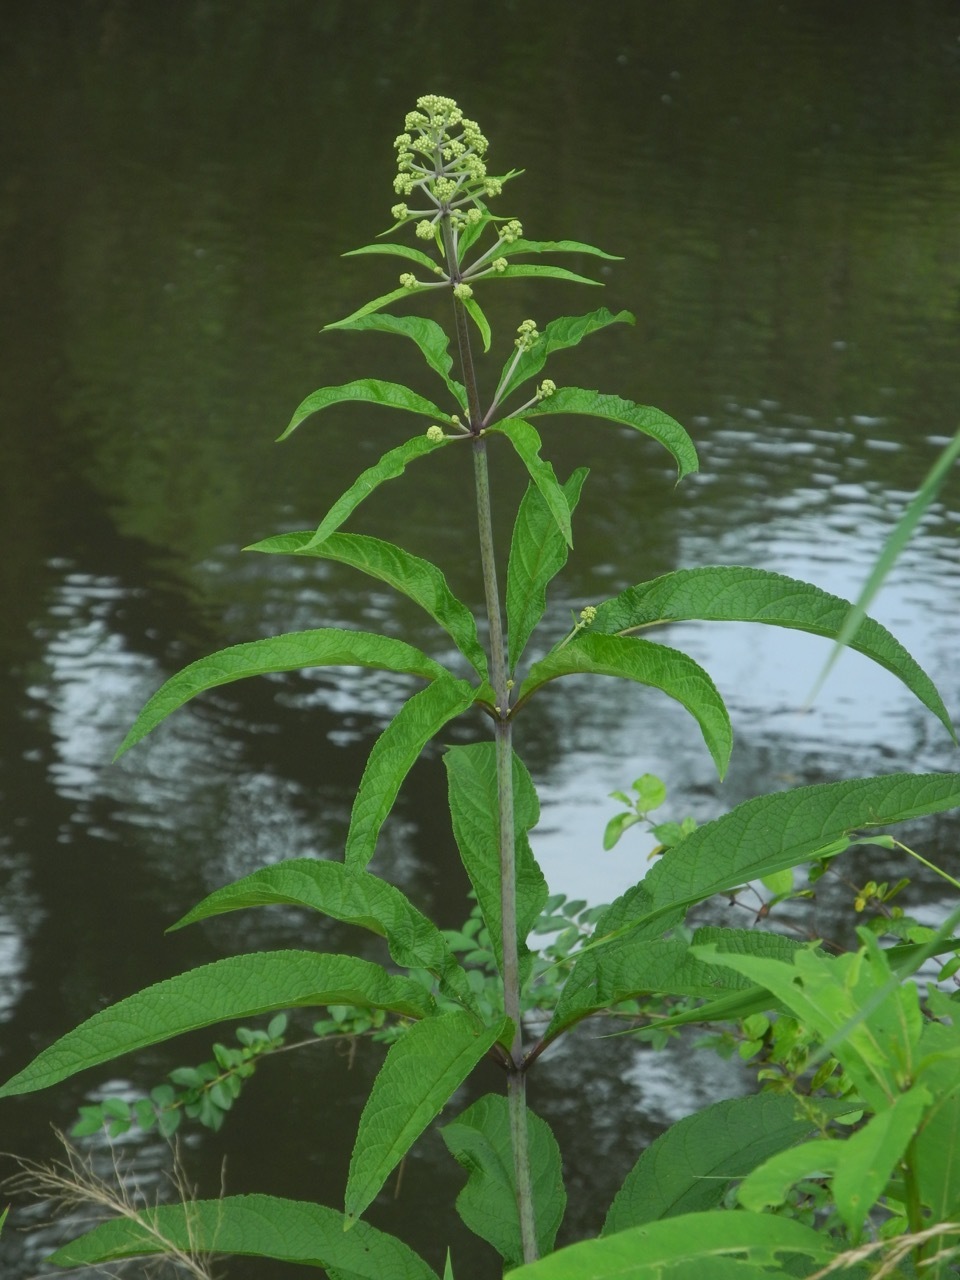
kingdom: Plantae
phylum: Tracheophyta
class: Magnoliopsida
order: Asterales
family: Asteraceae
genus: Eutrochium
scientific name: Eutrochium fistulosum
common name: Trumpetweed
